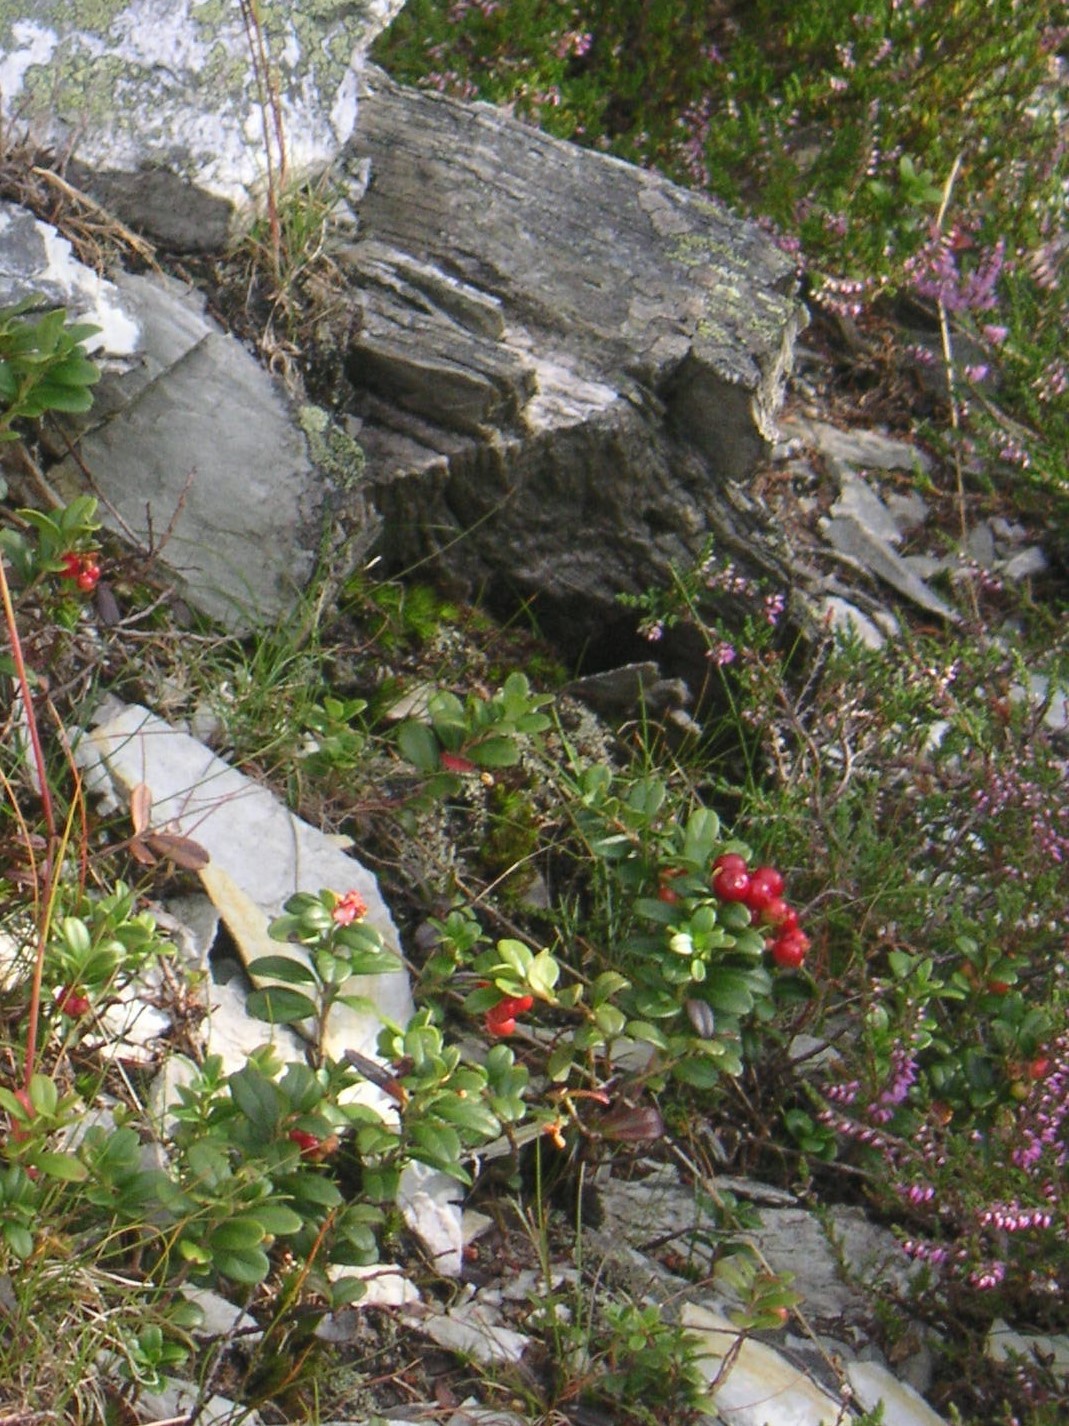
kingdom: Plantae
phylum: Tracheophyta
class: Magnoliopsida
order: Ericales
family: Ericaceae
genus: Vaccinium
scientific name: Vaccinium vitis-idaea
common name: Cowberry
